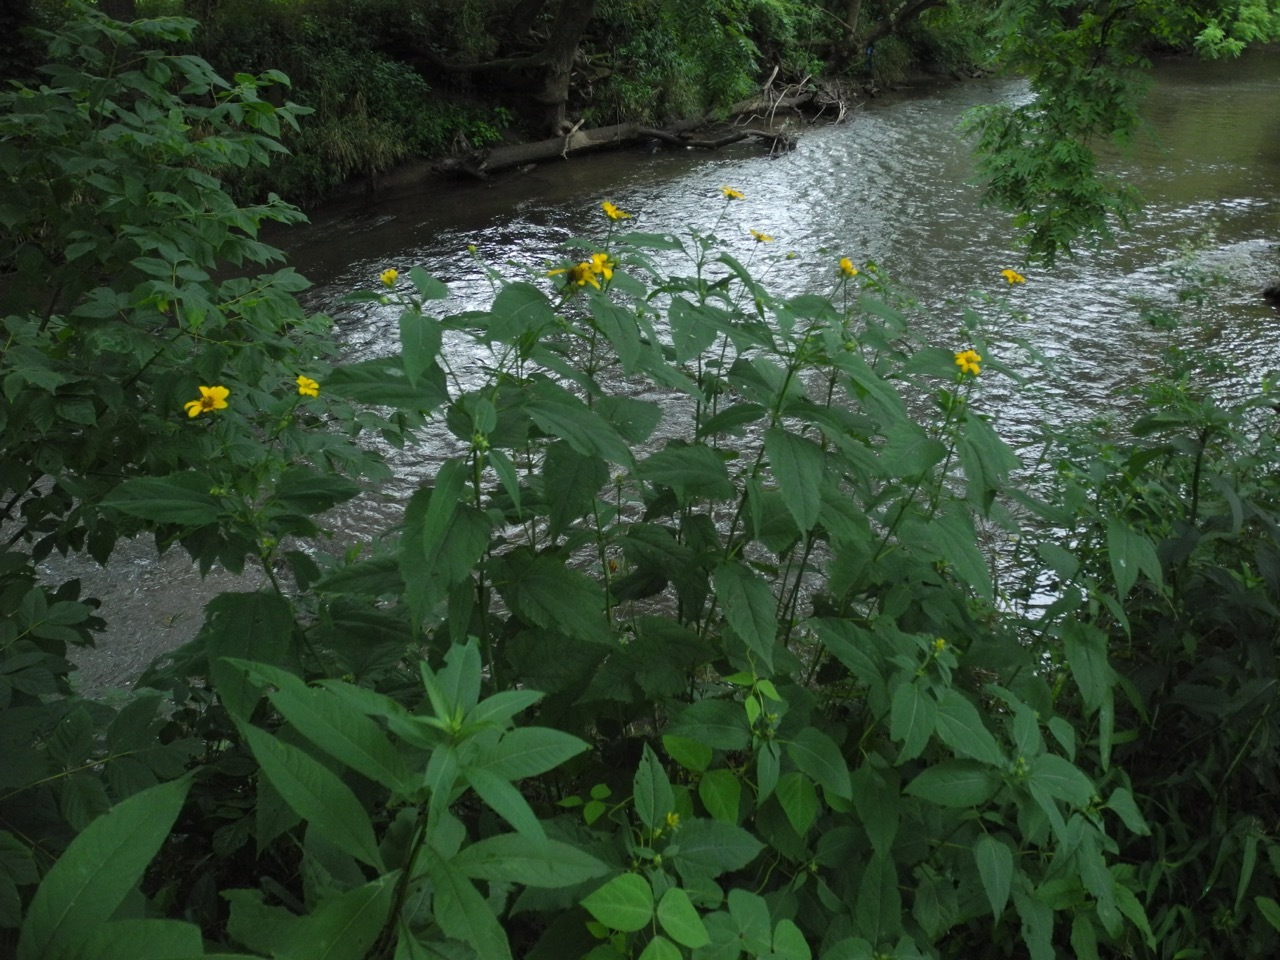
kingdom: Plantae
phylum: Tracheophyta
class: Magnoliopsida
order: Asterales
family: Asteraceae
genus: Heliopsis
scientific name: Heliopsis helianthoides
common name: False sunflower
